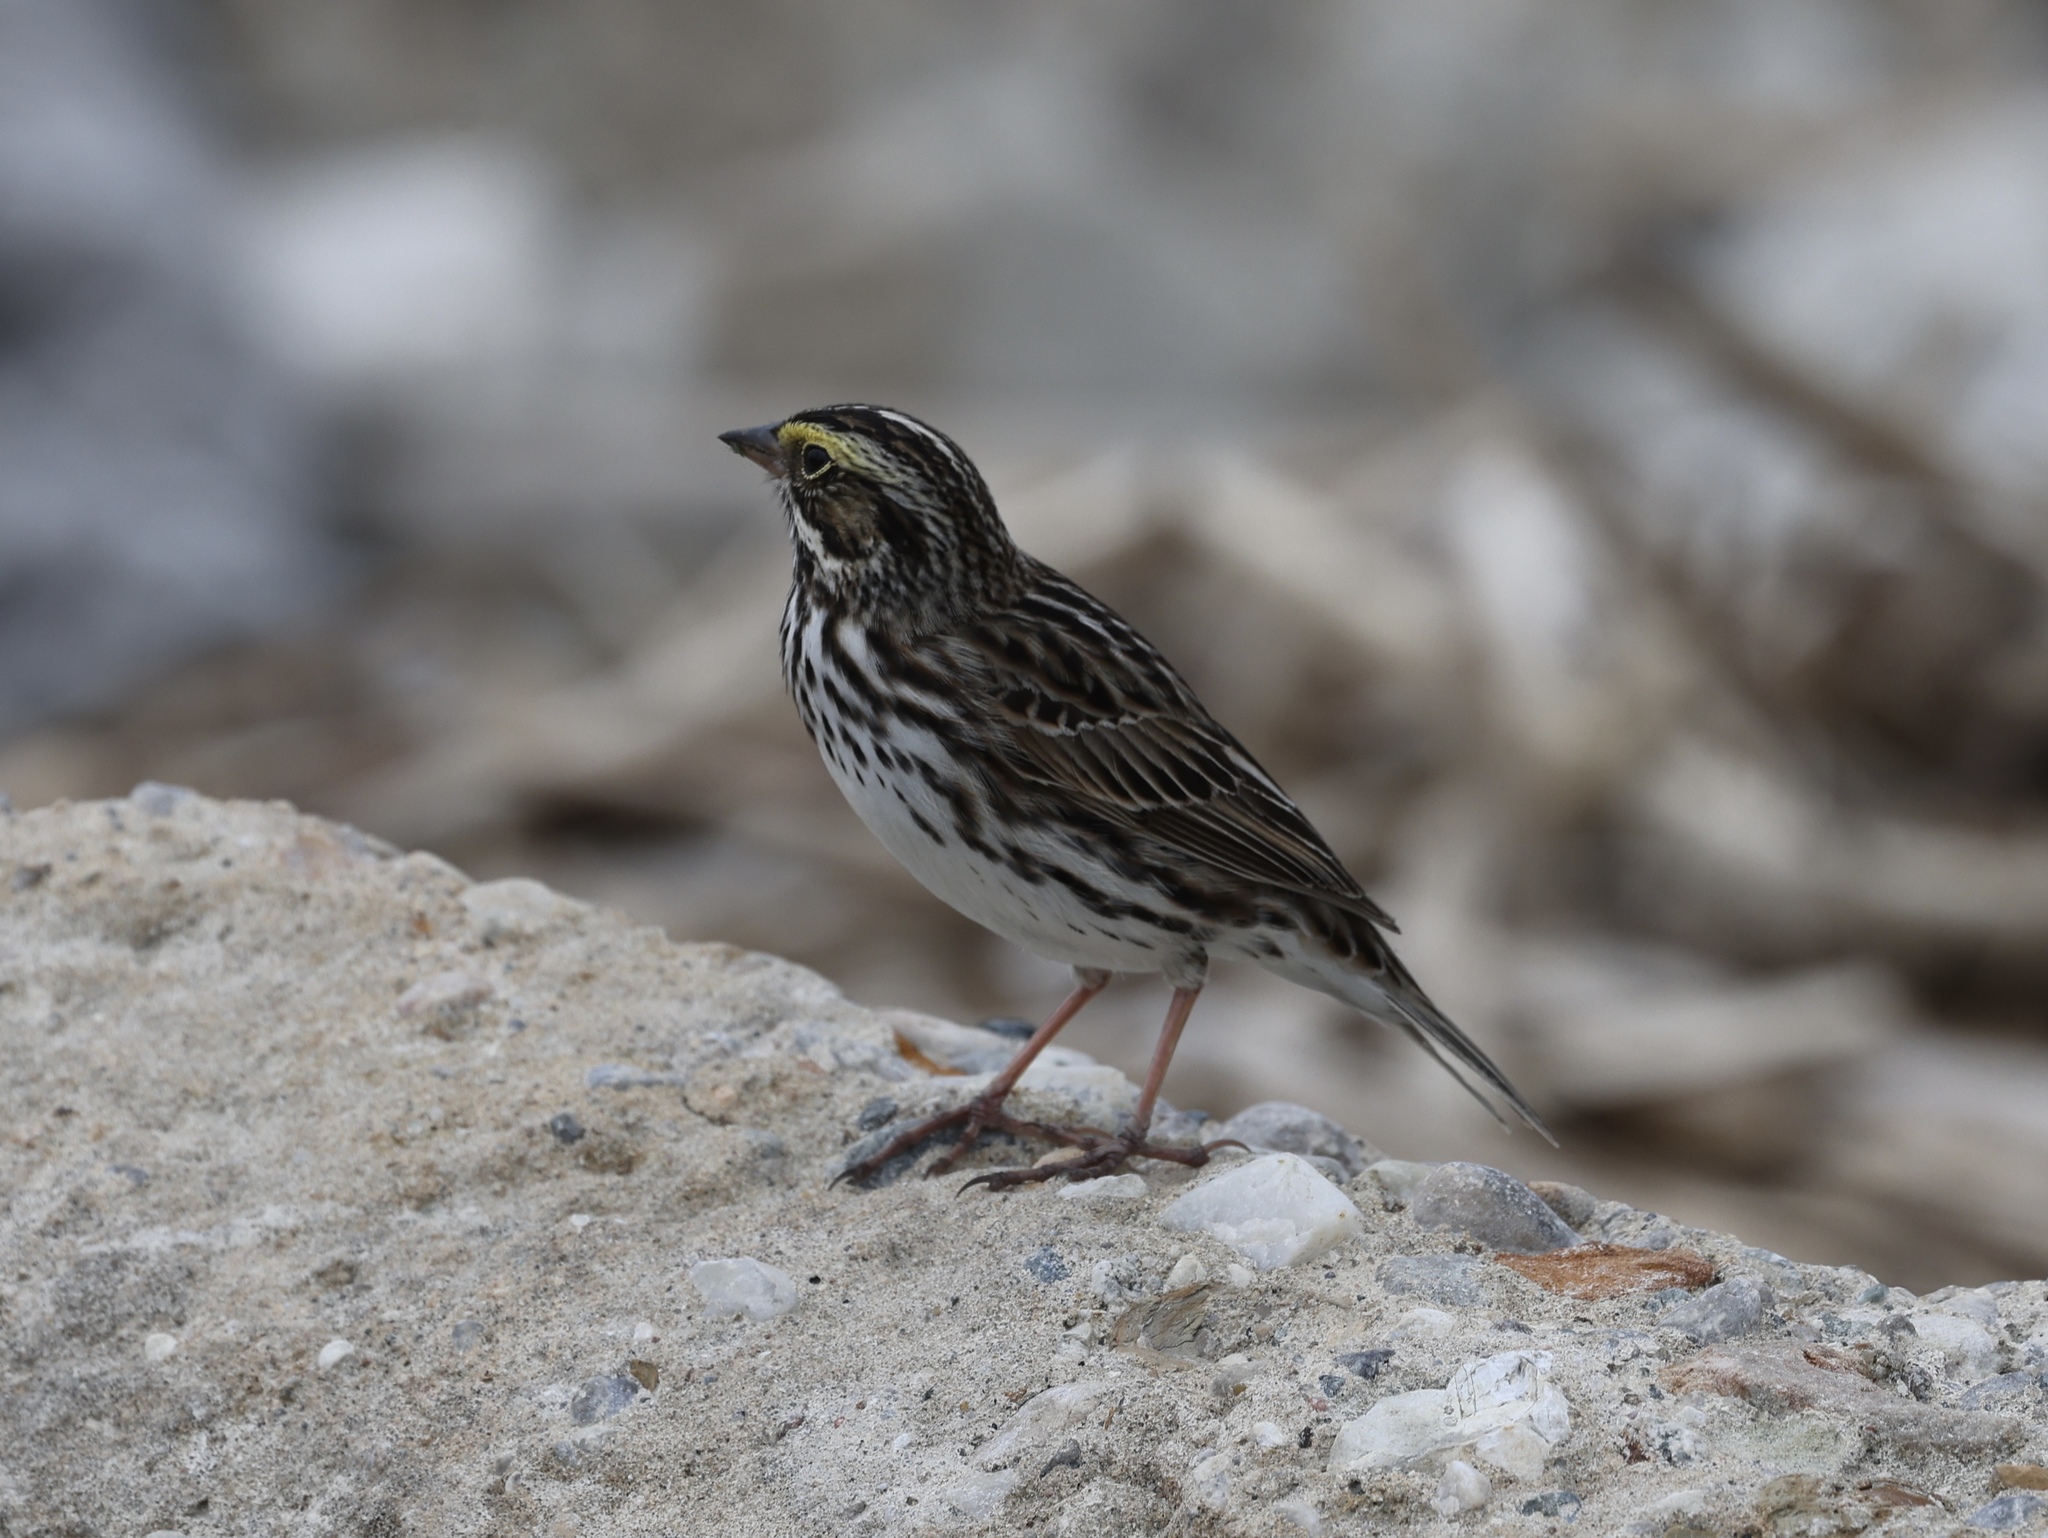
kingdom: Animalia
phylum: Chordata
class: Aves
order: Passeriformes
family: Passerellidae
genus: Passerculus
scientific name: Passerculus sandwichensis
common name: Savannah sparrow
